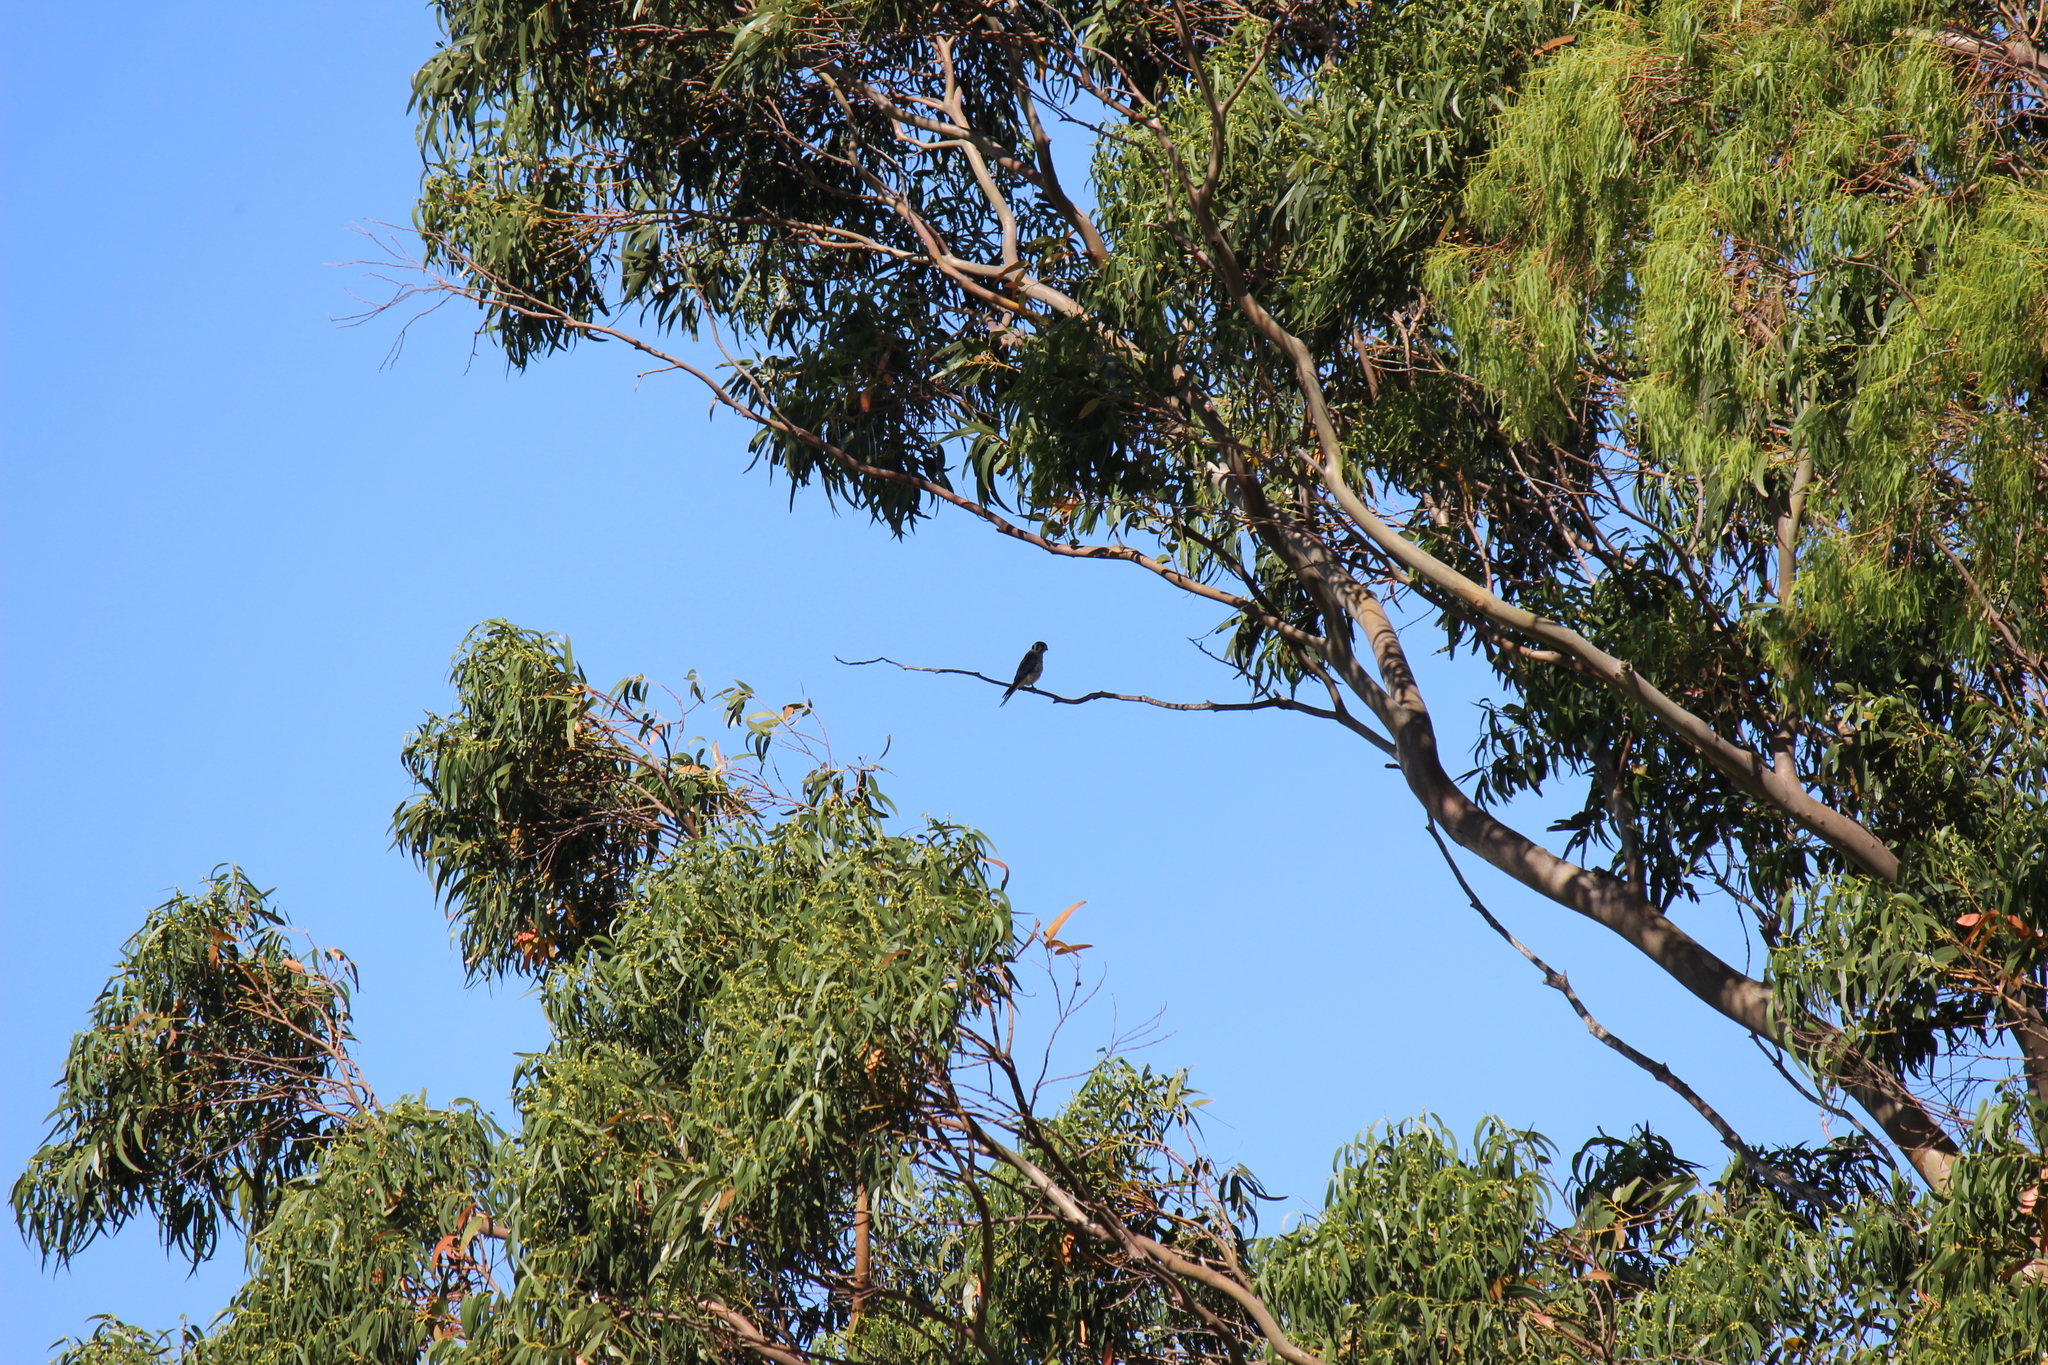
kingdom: Animalia
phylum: Chordata
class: Aves
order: Falconiformes
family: Falconidae
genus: Falco
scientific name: Falco sparverius
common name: American kestrel
